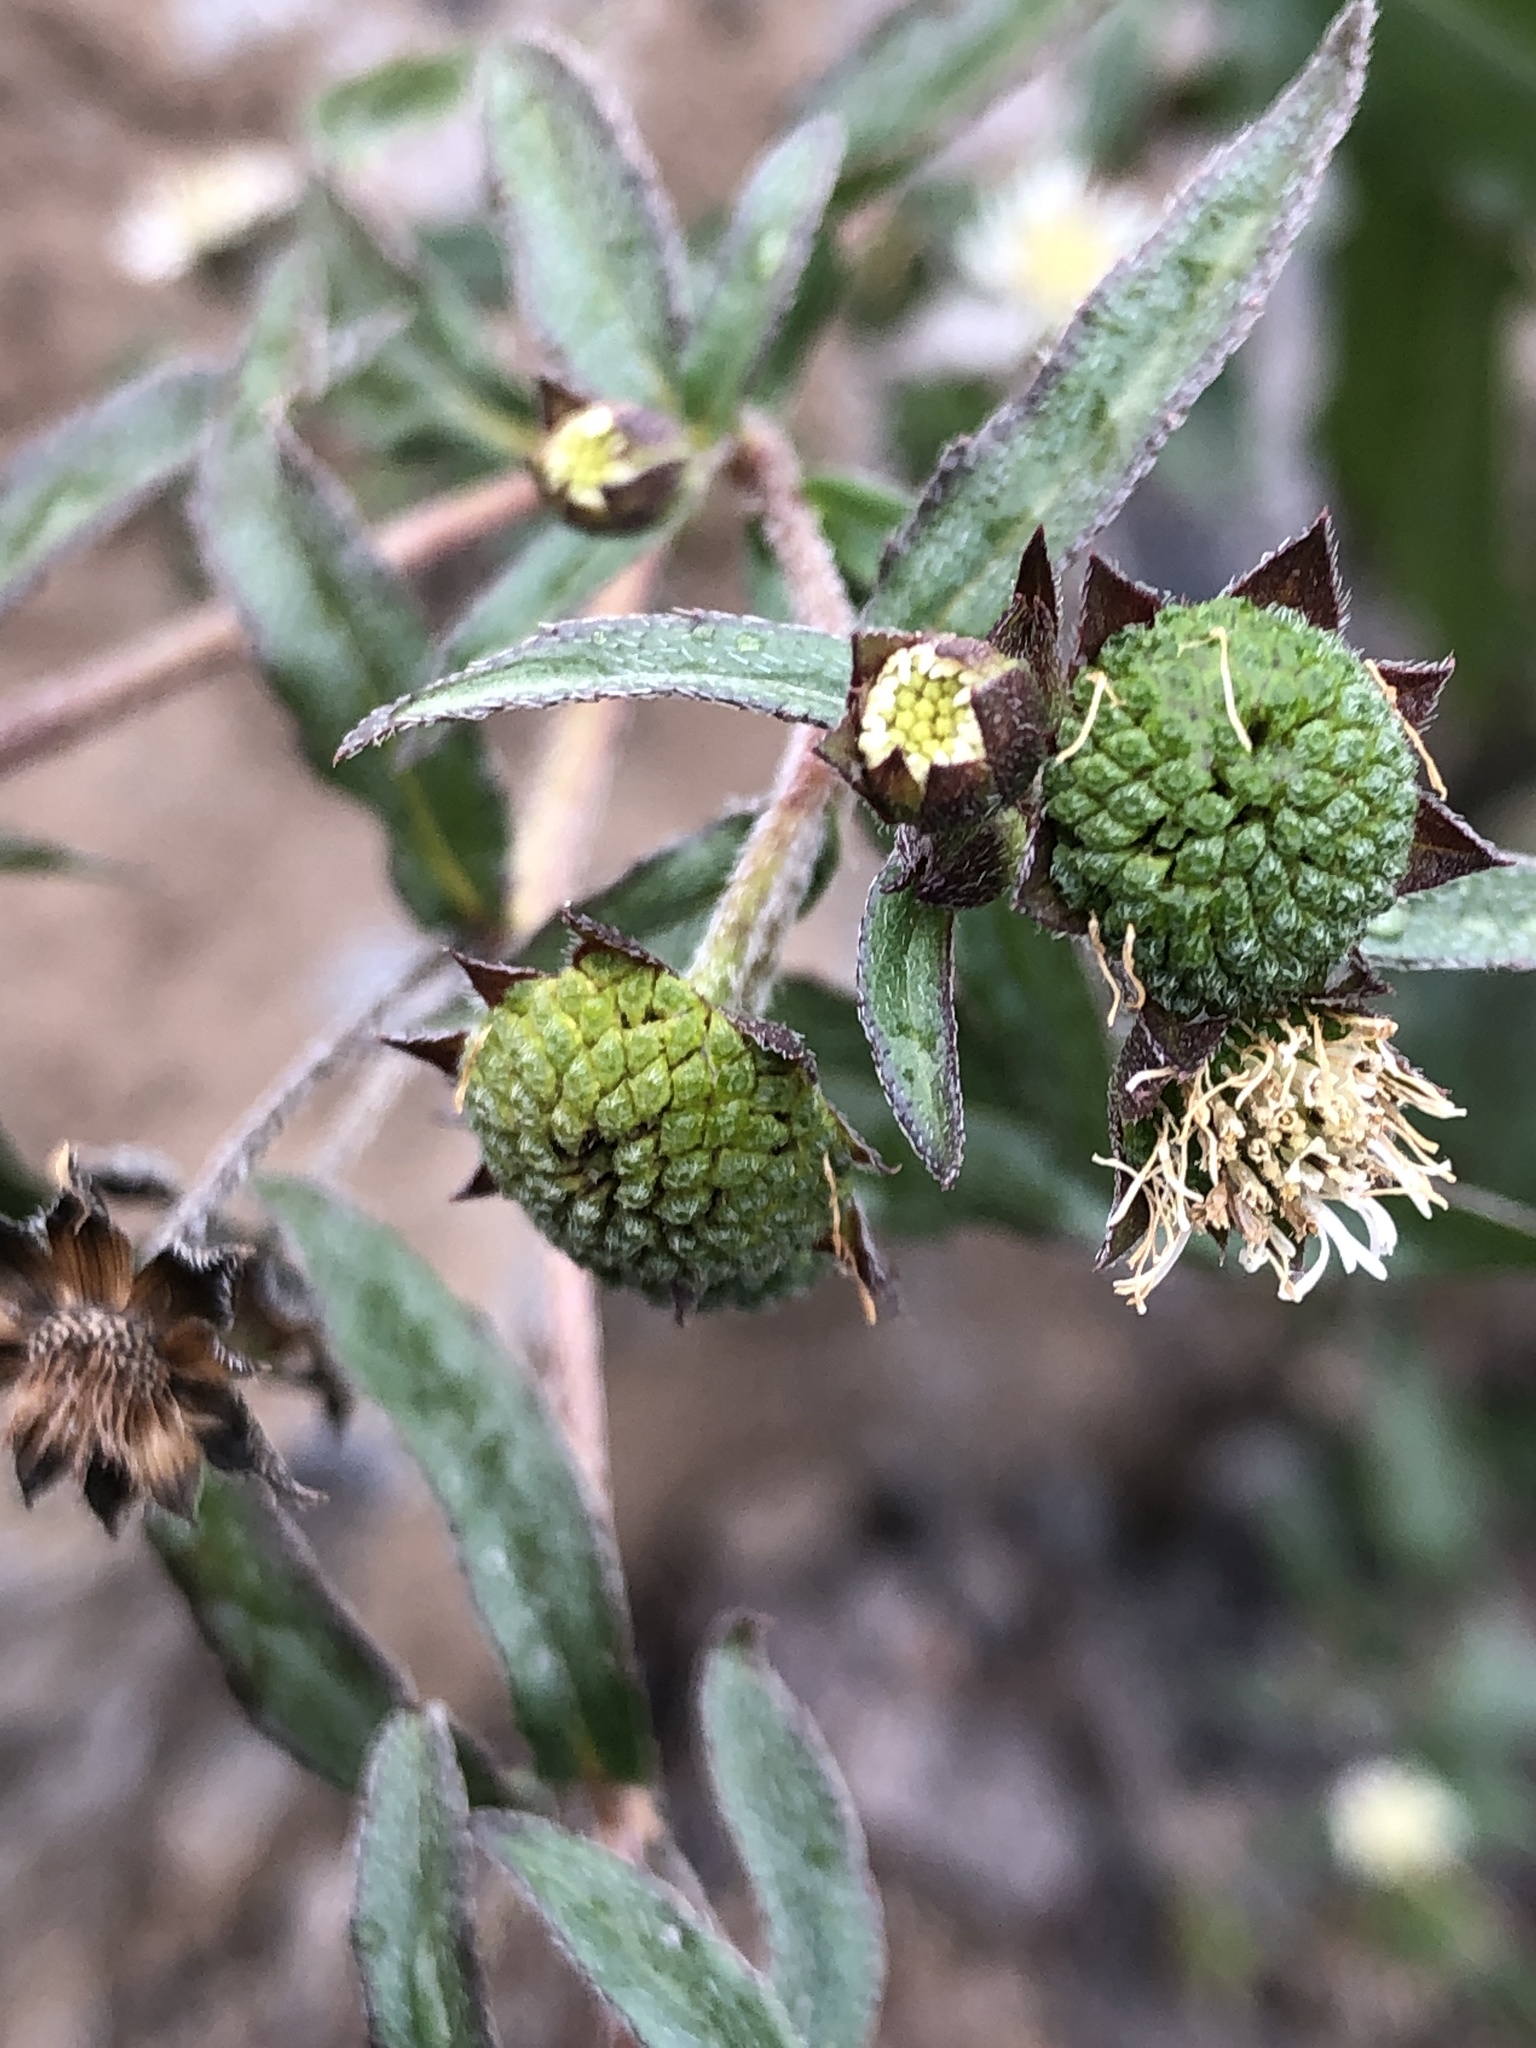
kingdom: Plantae
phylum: Tracheophyta
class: Magnoliopsida
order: Asterales
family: Asteraceae
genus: Eclipta
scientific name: Eclipta prostrata
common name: False daisy
